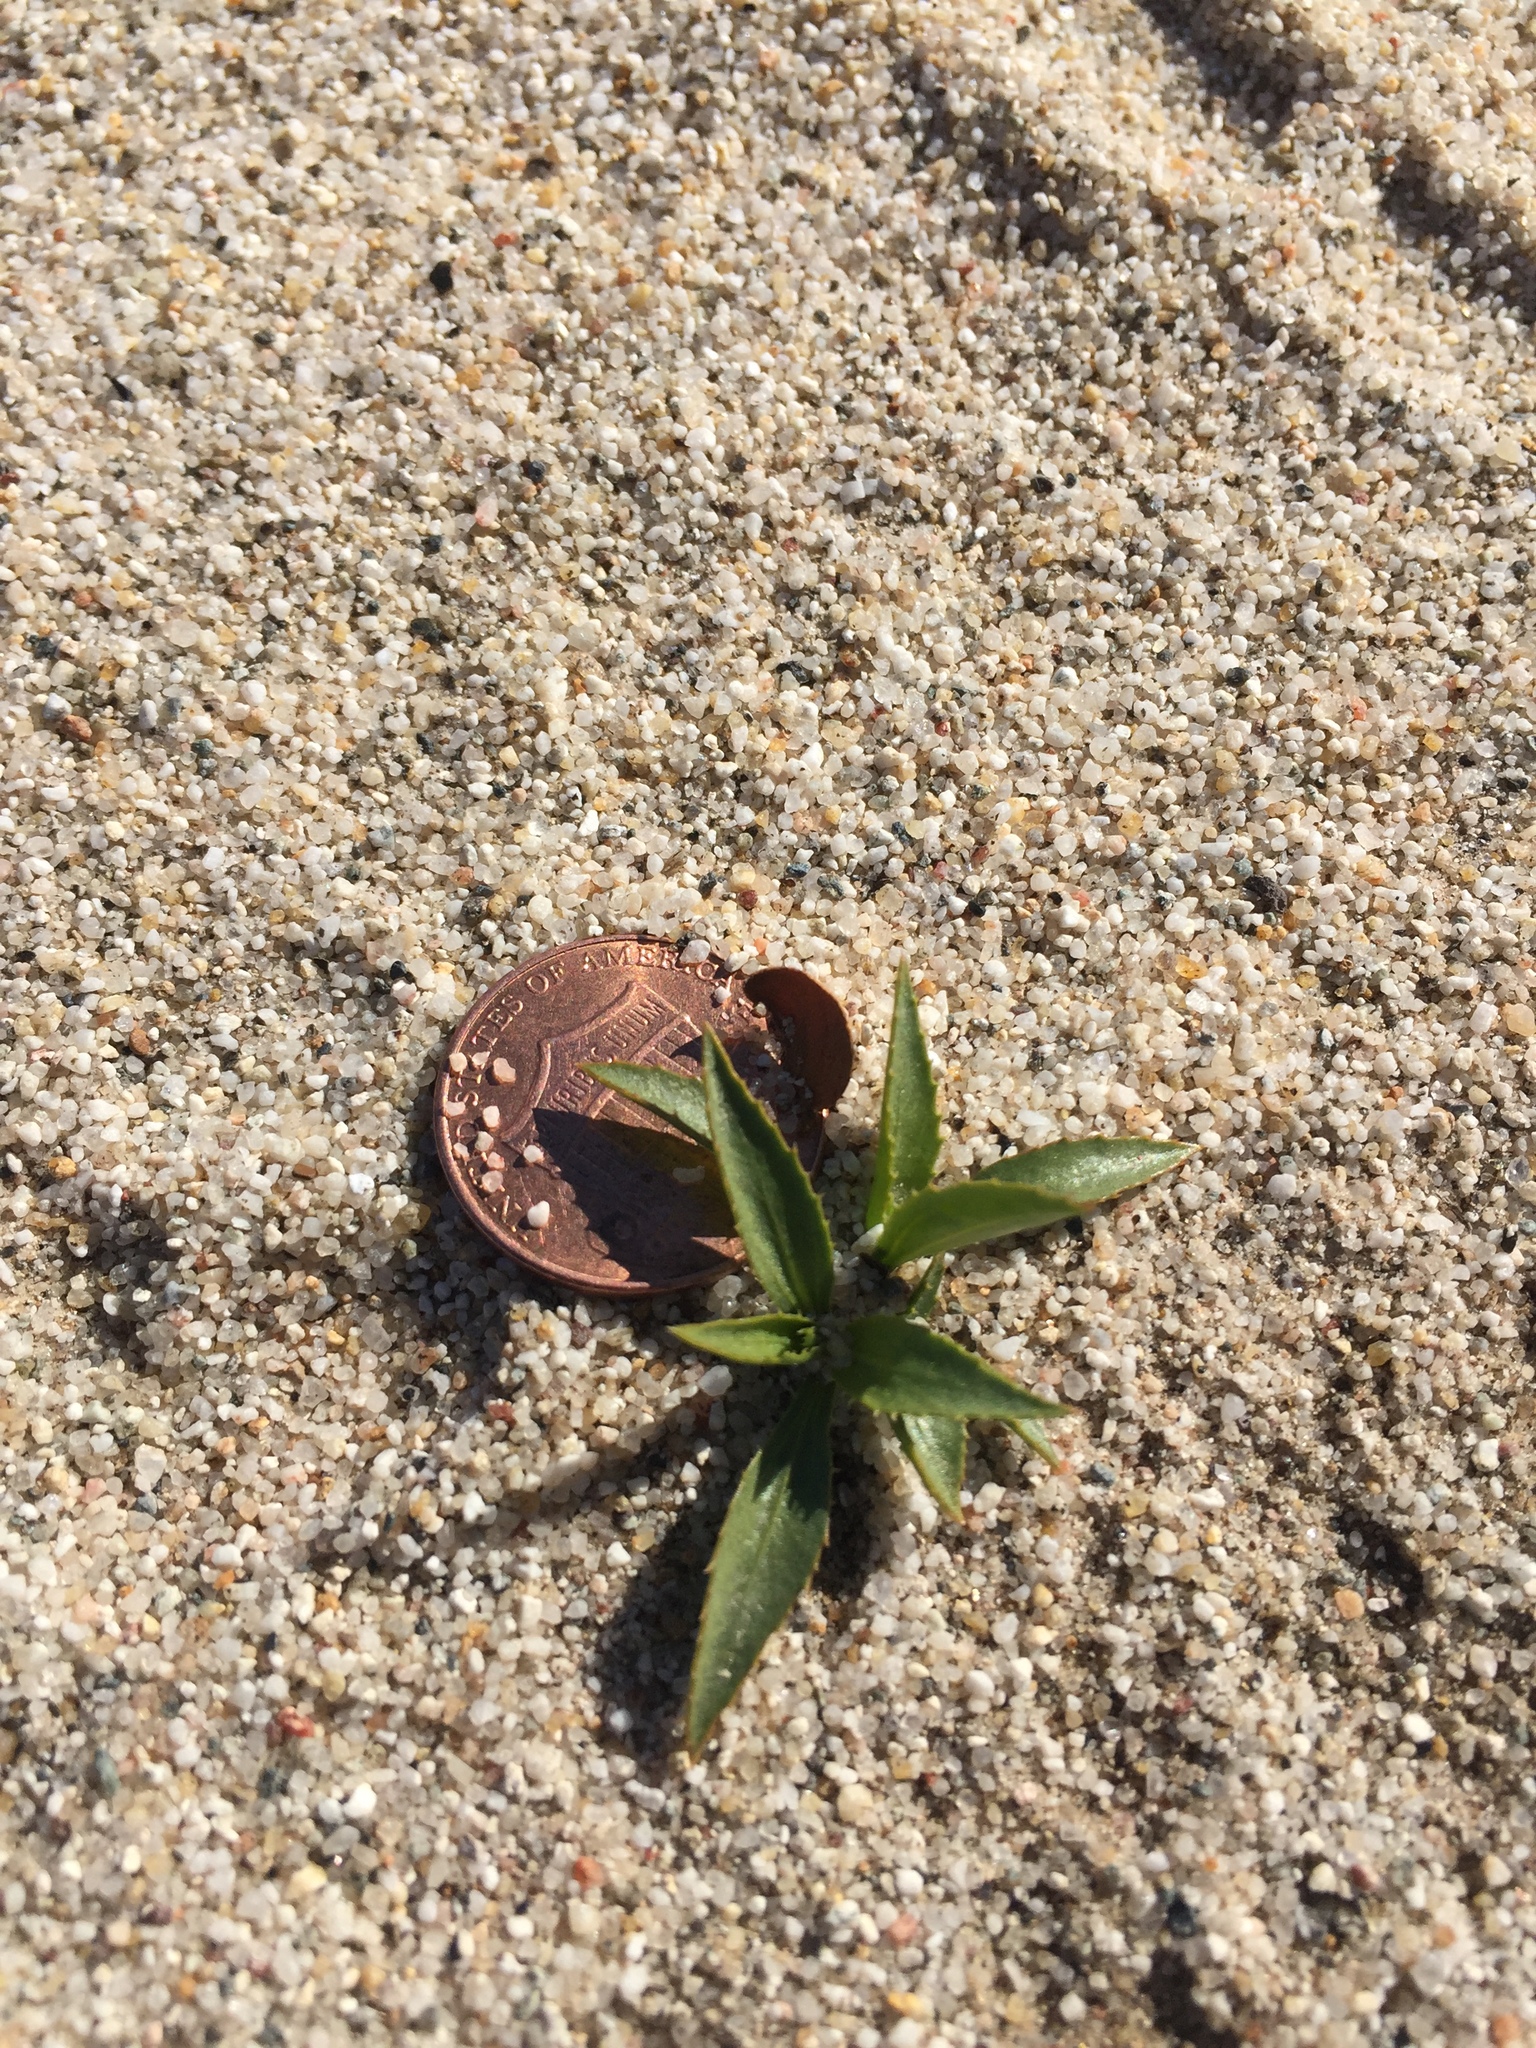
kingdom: Plantae
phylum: Tracheophyta
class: Magnoliopsida
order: Malpighiales
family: Euphorbiaceae
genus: Stillingia
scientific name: Stillingia spinulosa
